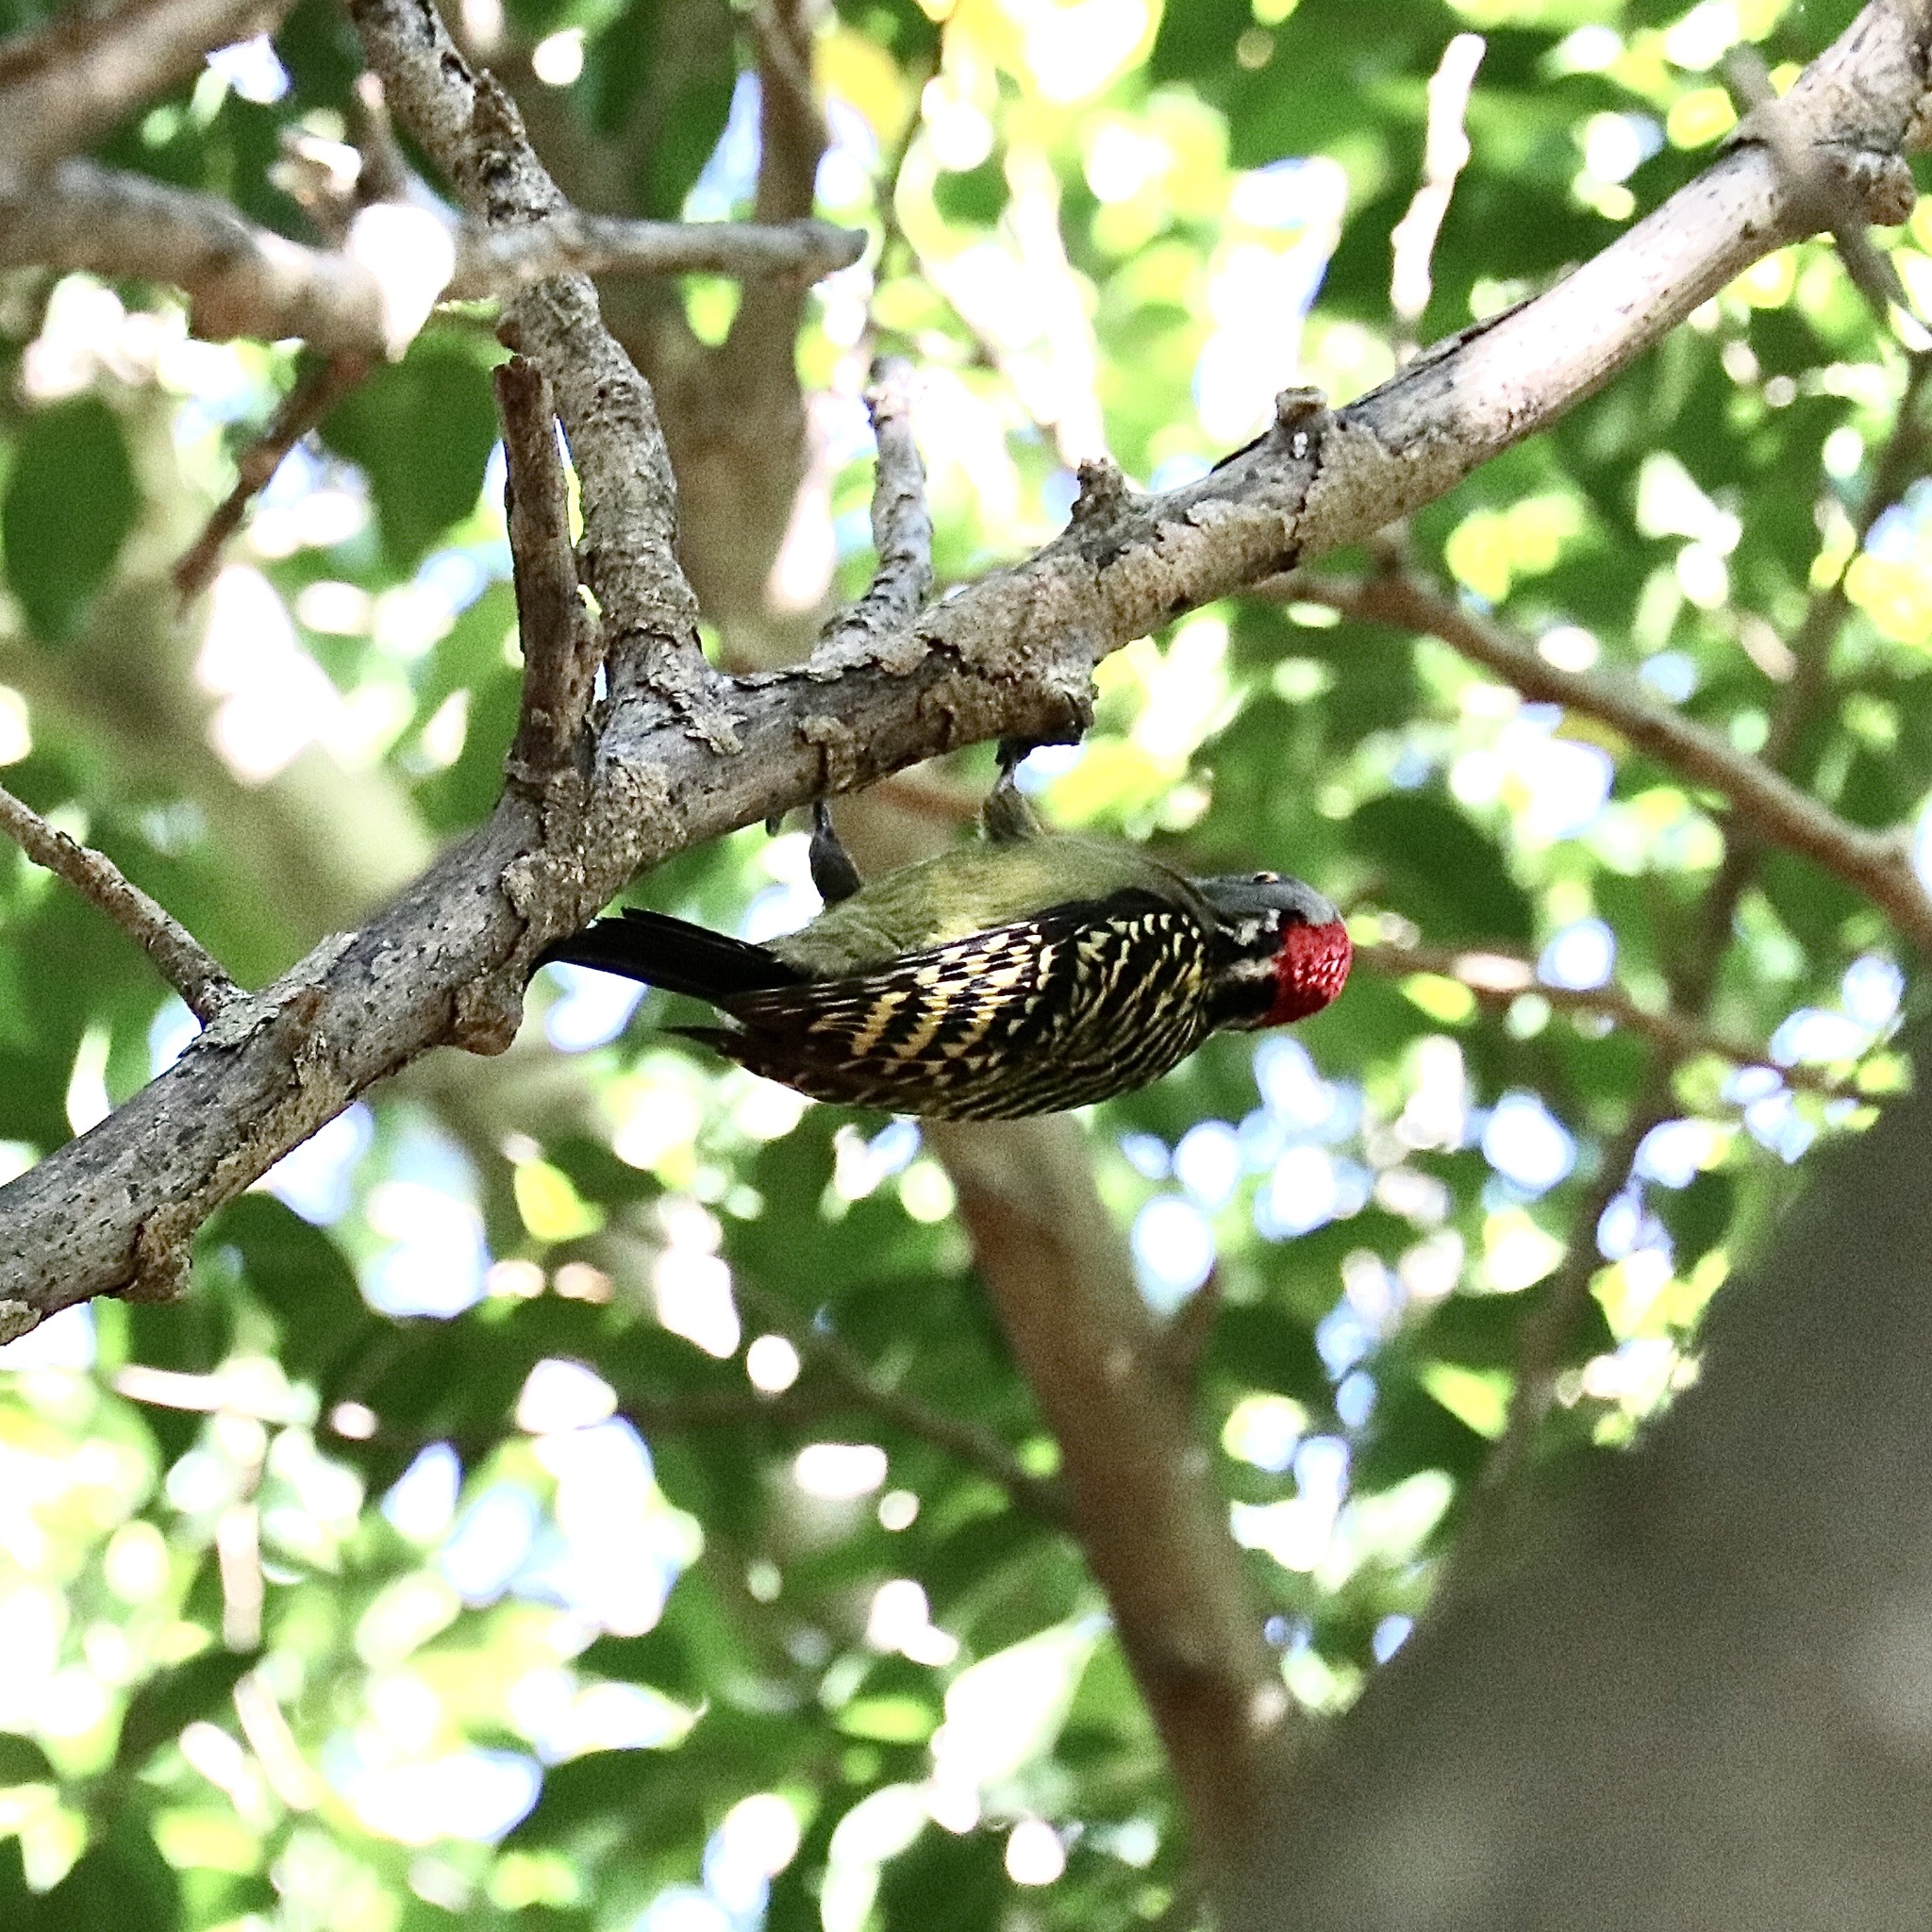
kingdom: Animalia
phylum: Chordata
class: Aves
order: Piciformes
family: Picidae
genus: Melanerpes
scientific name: Melanerpes striatus
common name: Hispaniolan woodpecker
